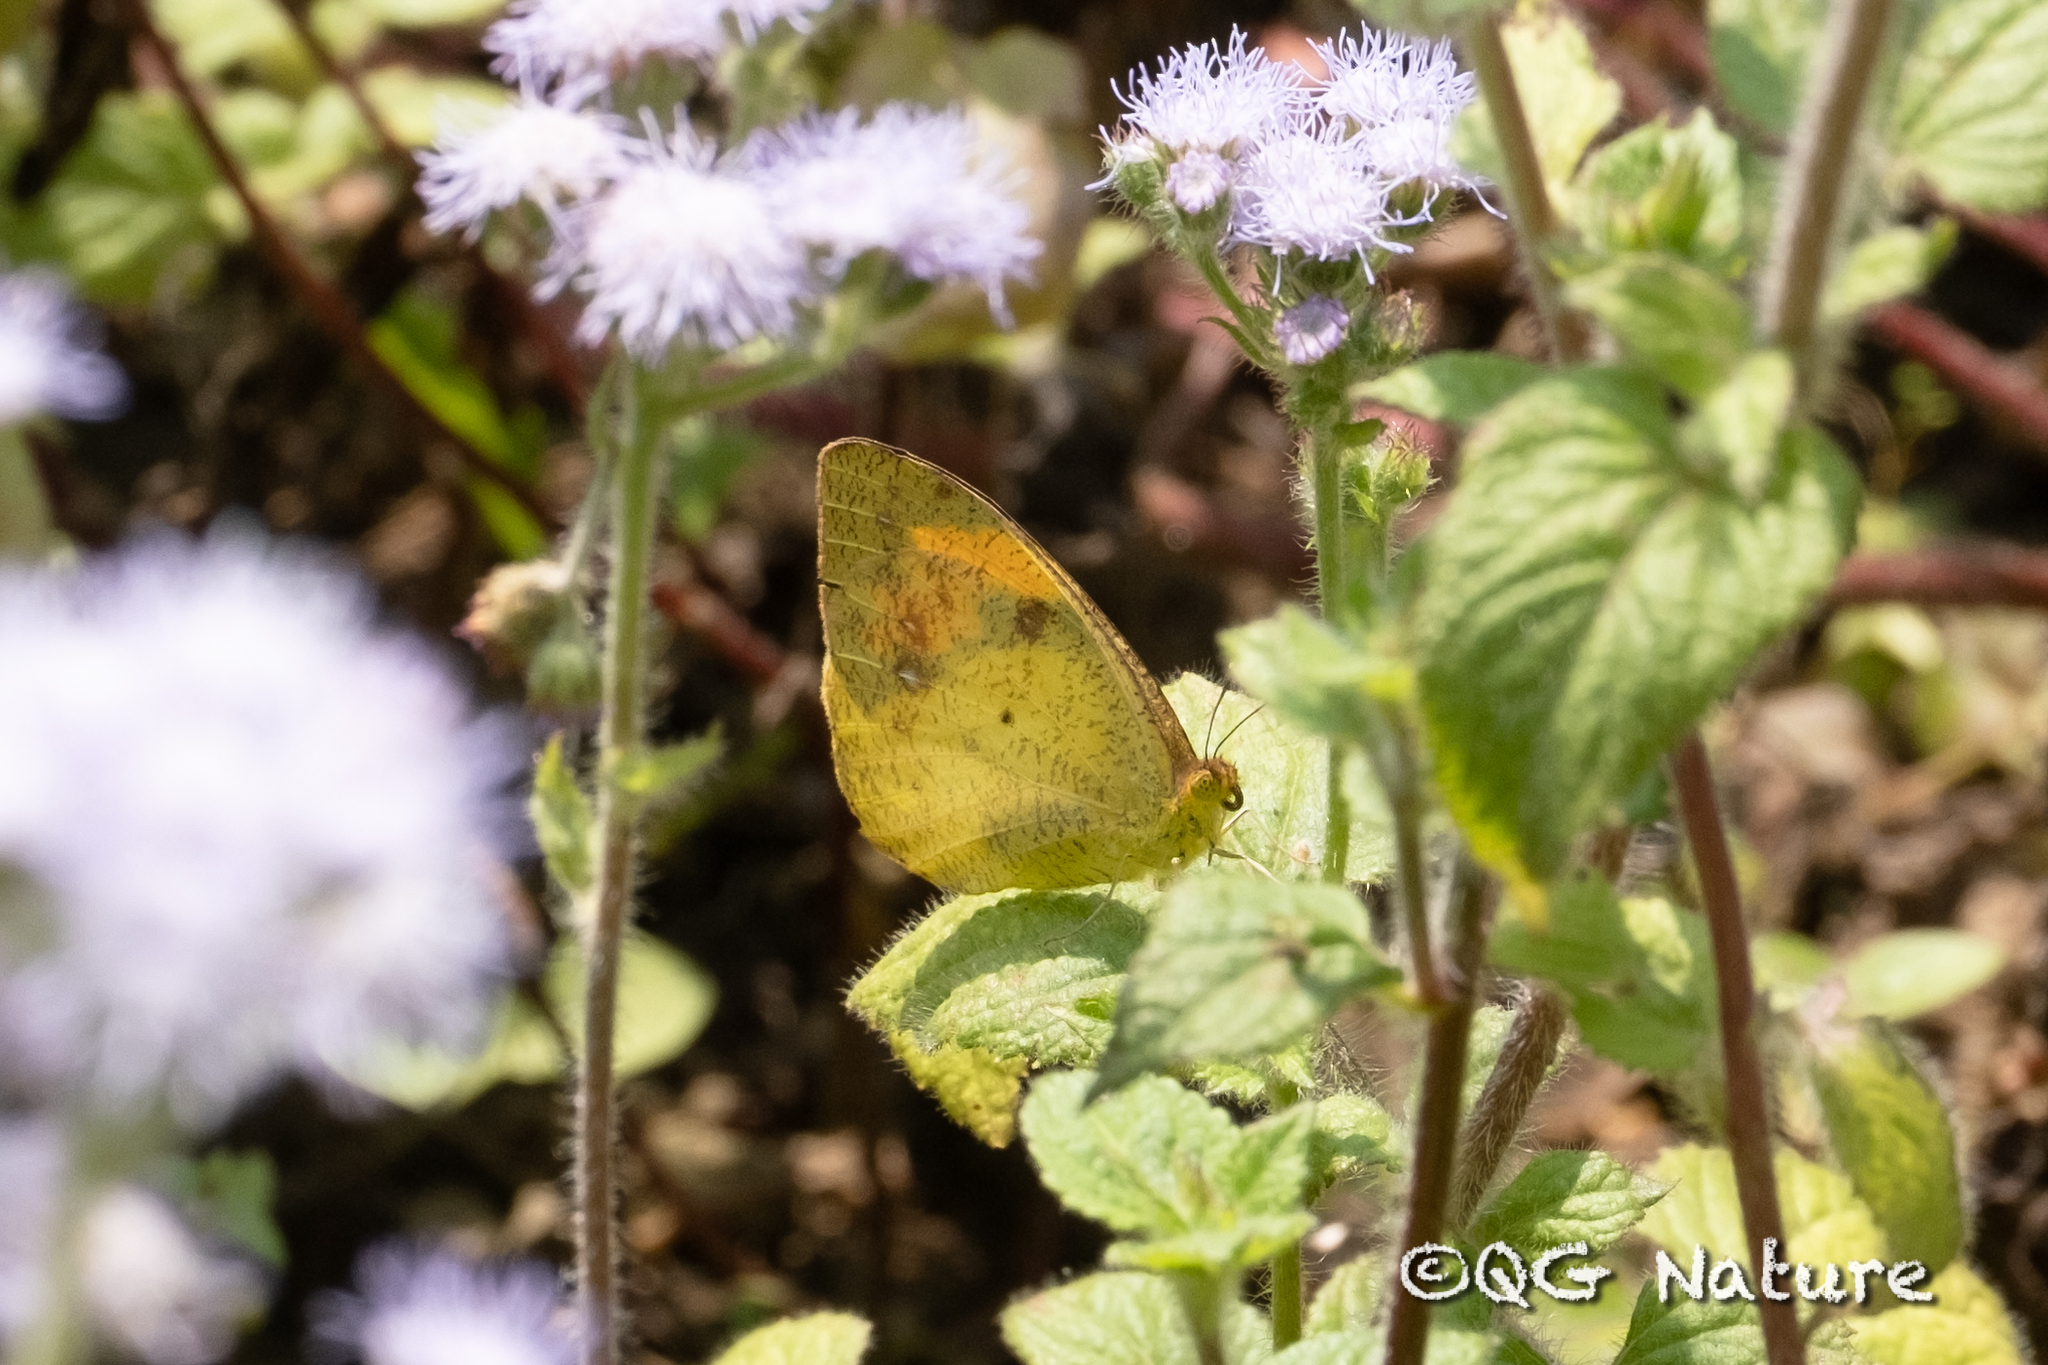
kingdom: Animalia
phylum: Arthropoda
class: Insecta
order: Lepidoptera
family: Pieridae
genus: Ixias
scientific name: Ixias pyrene
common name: Yellow orange tip
